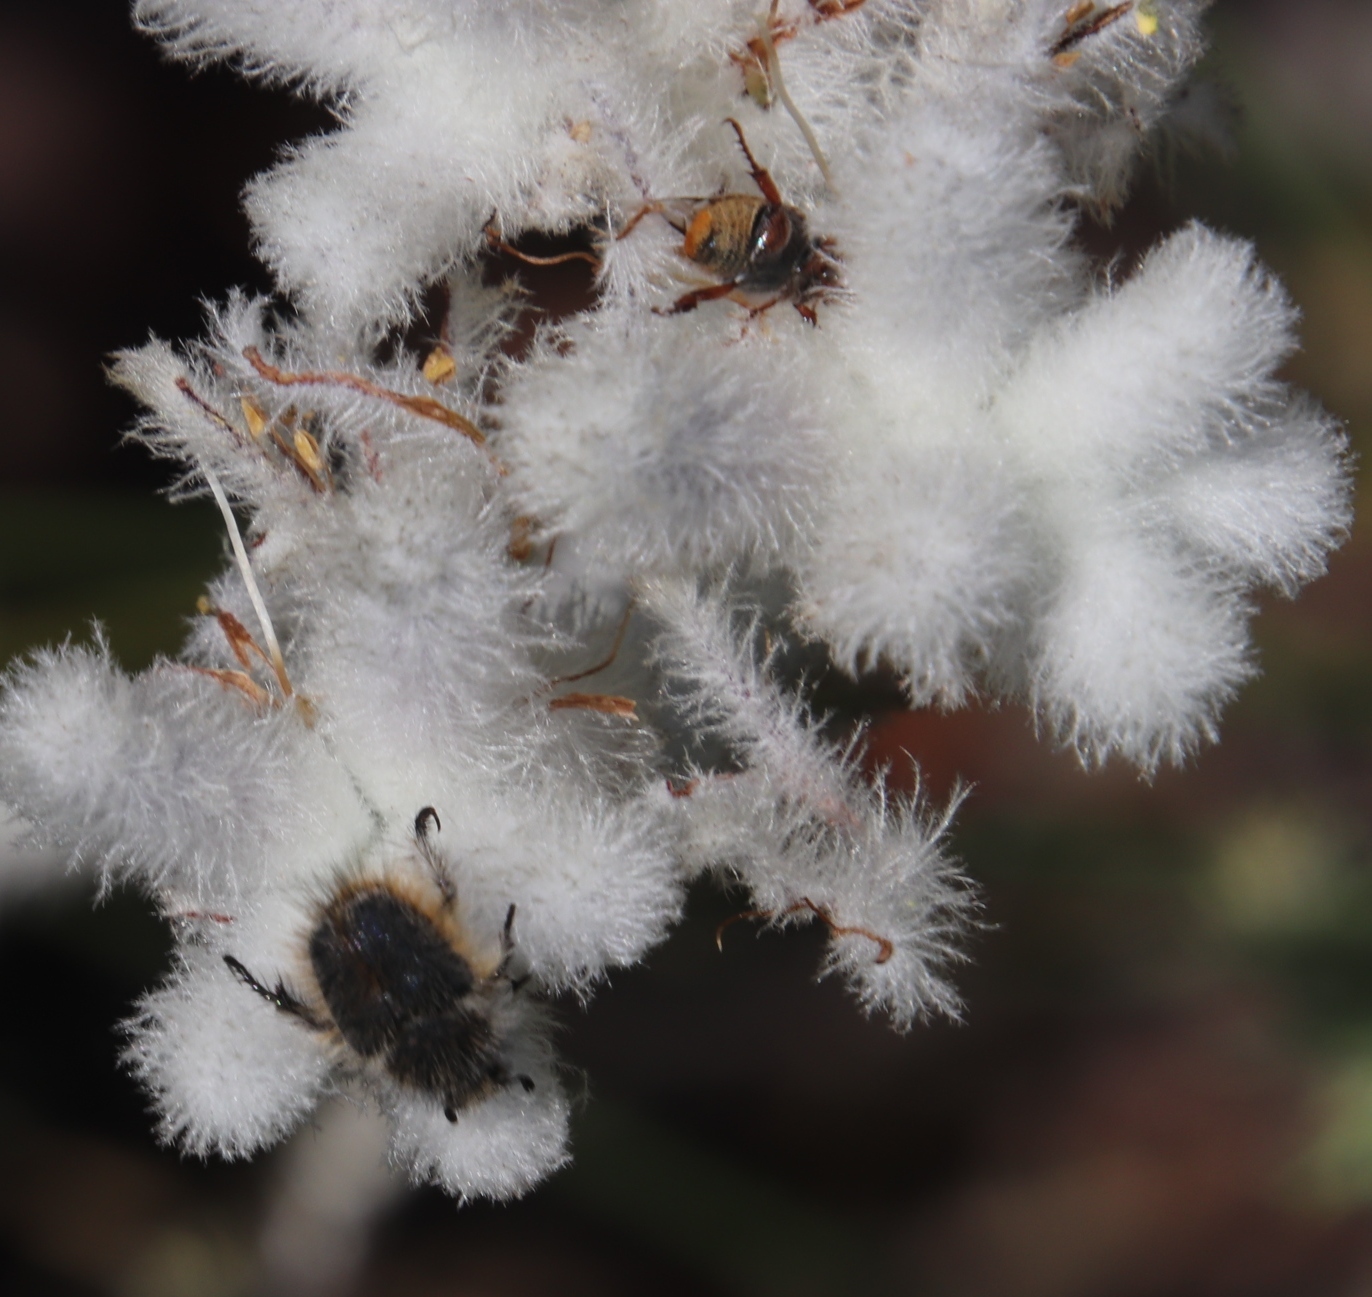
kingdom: Plantae
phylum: Tracheophyta
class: Liliopsida
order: Asparagales
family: Lanariaceae
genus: Lanaria
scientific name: Lanaria lanata
